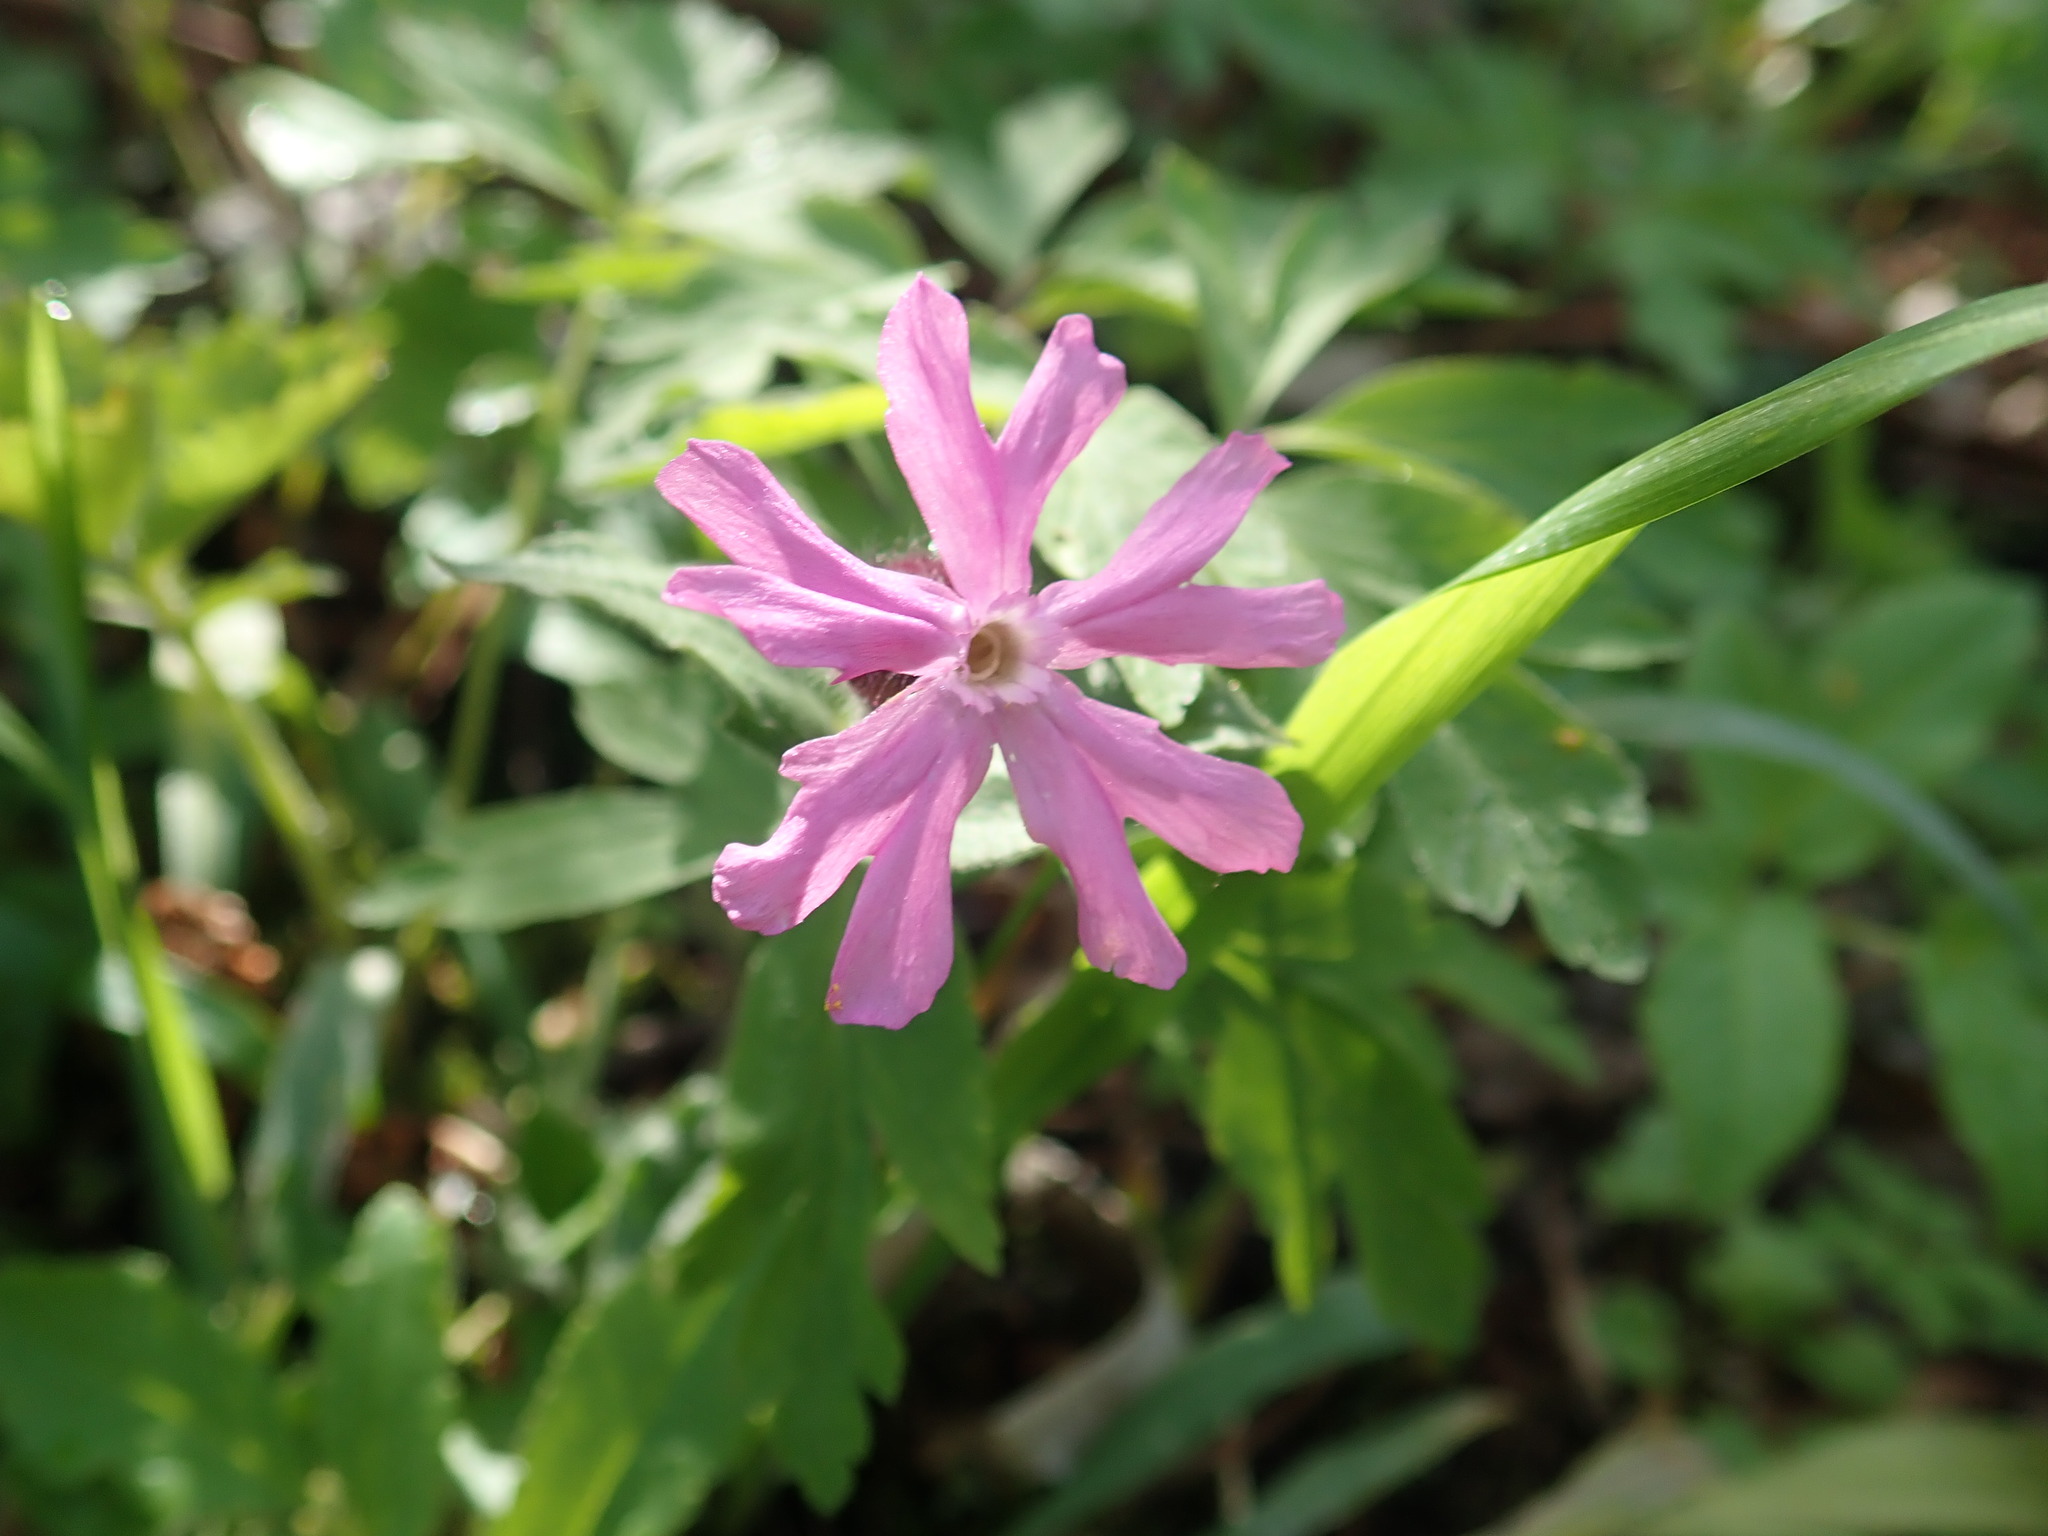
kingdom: Plantae
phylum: Tracheophyta
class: Magnoliopsida
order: Caryophyllales
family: Caryophyllaceae
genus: Silene
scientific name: Silene dioica
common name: Red campion
